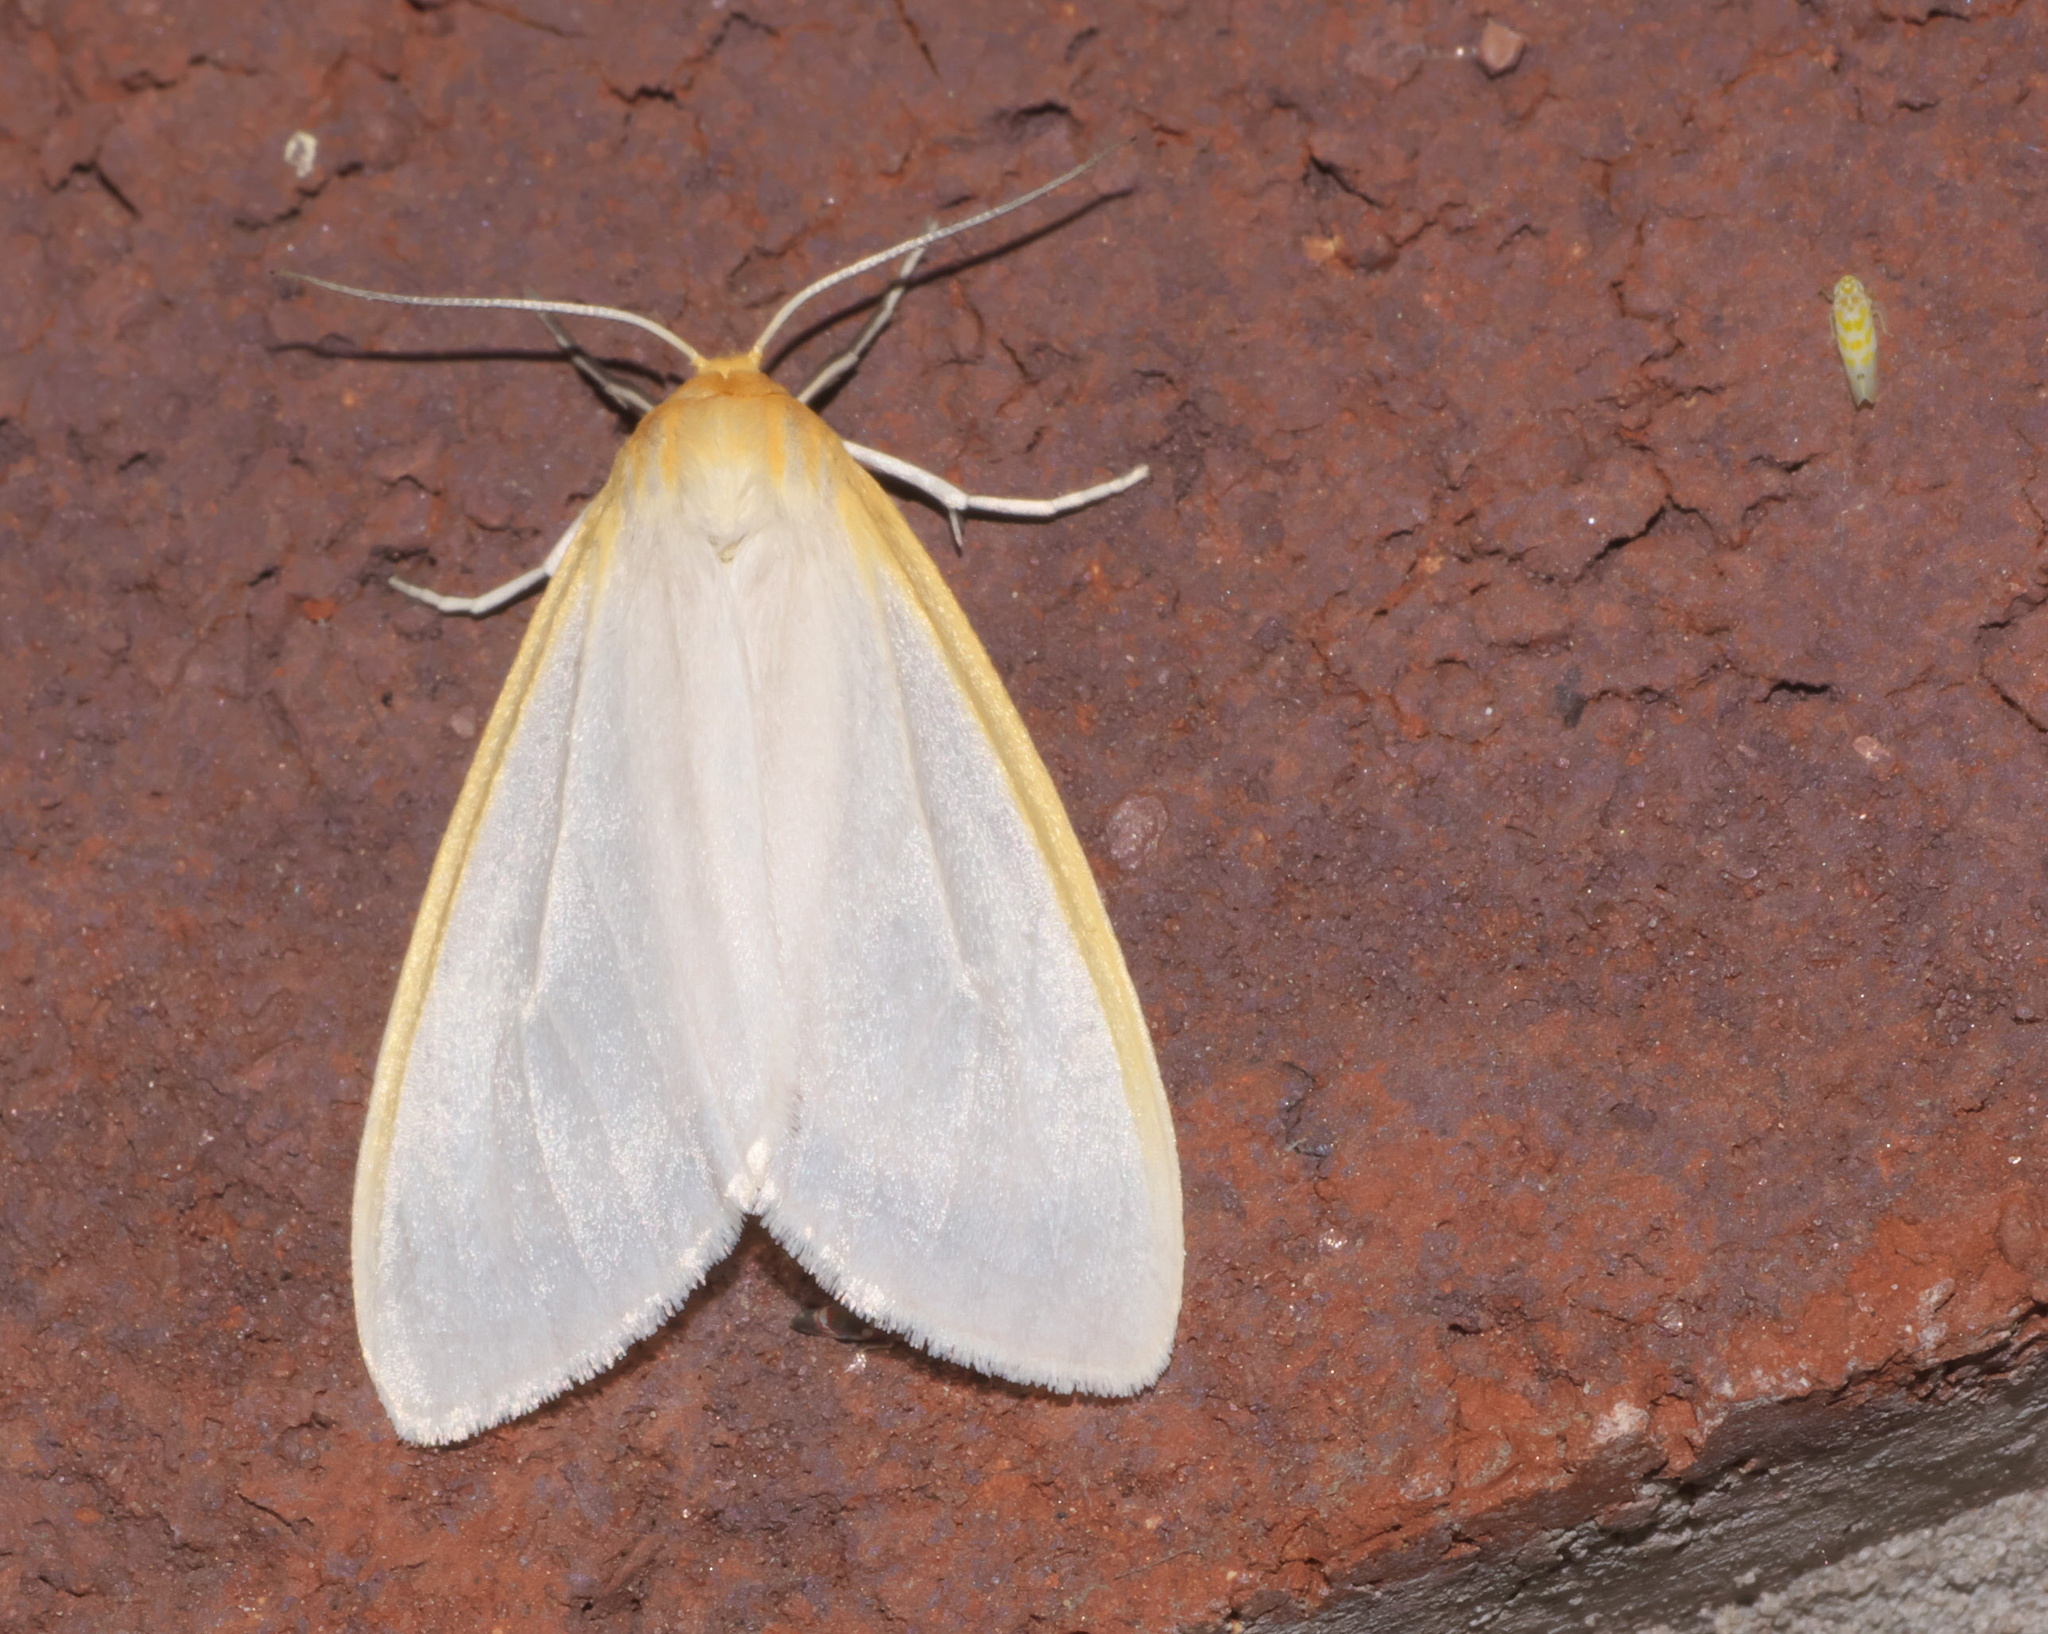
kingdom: Animalia
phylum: Arthropoda
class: Insecta
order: Lepidoptera
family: Erebidae
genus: Cycnia
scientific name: Cycnia tenera
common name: Delicate cycnia moth
